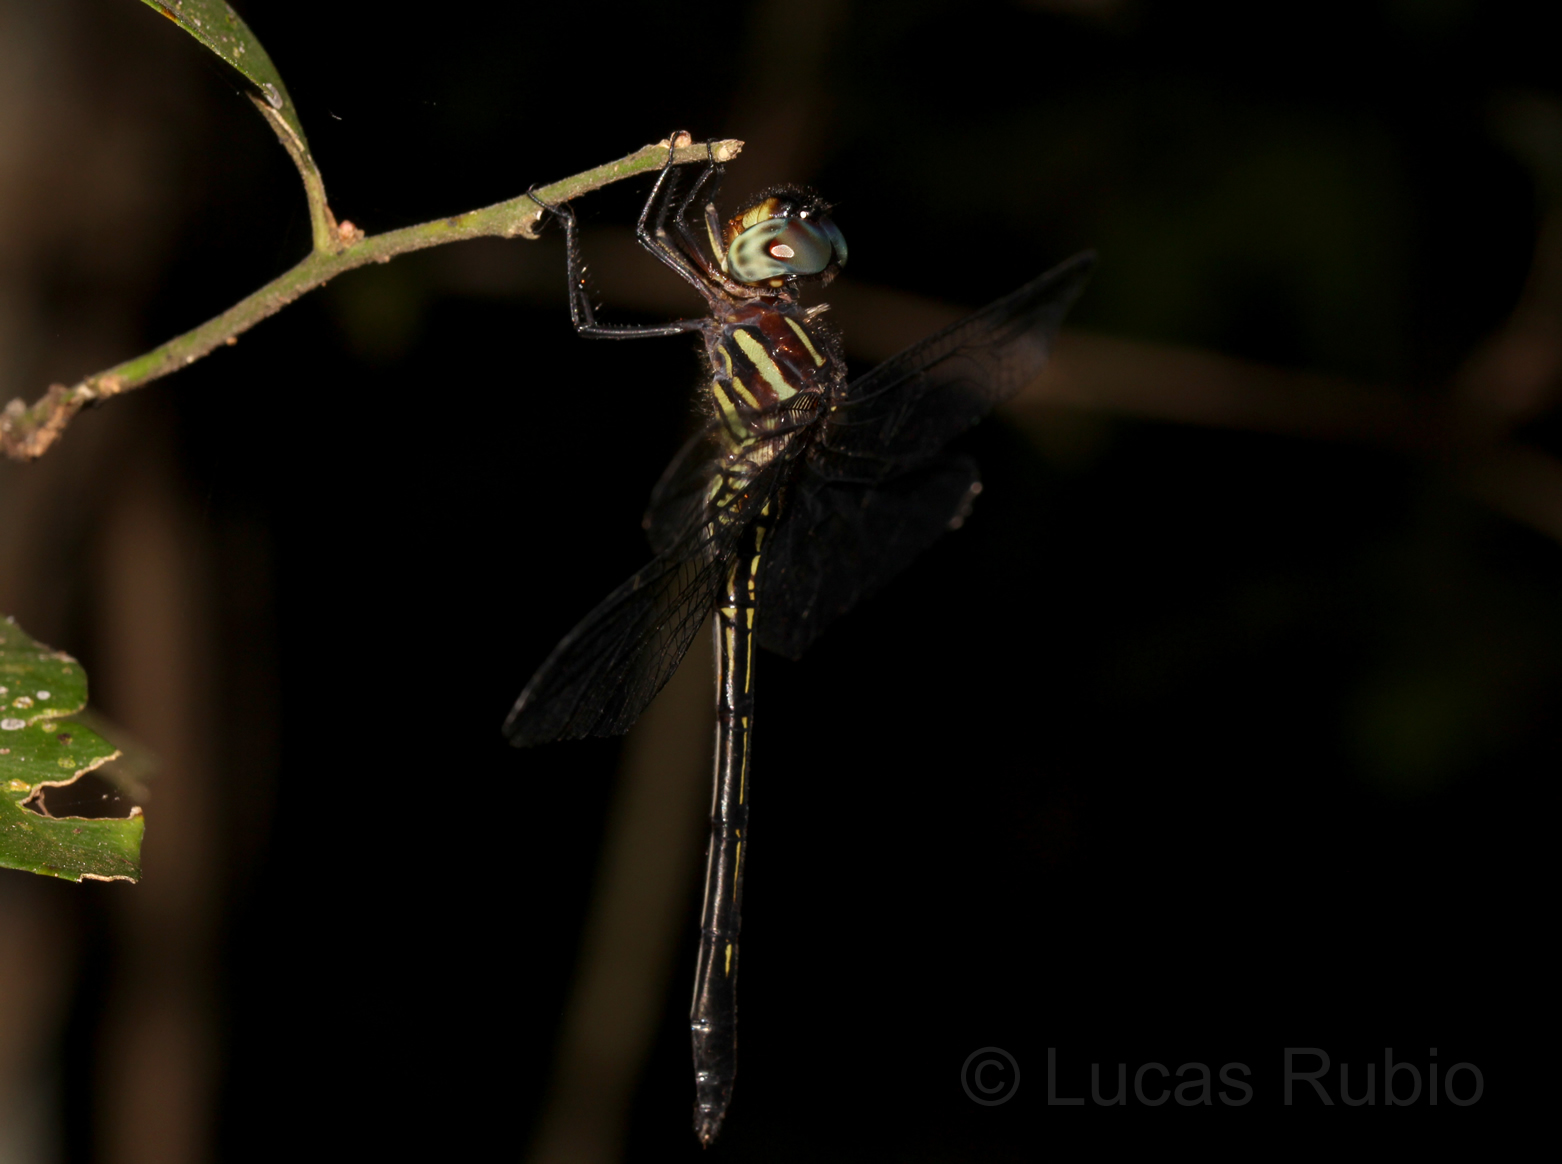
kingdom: Animalia
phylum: Arthropoda
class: Insecta
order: Odonata
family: Libellulidae
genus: Brechmorhoga
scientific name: Brechmorhoga nubecula
